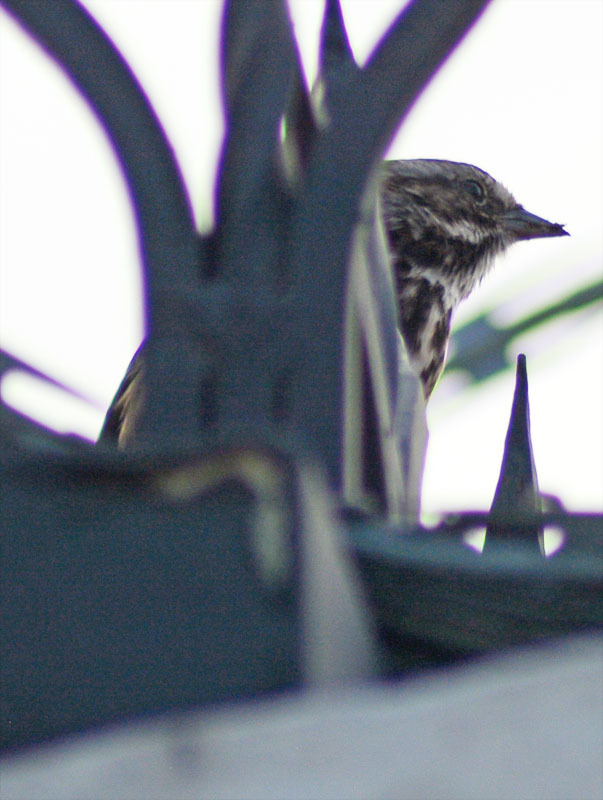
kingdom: Animalia
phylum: Chordata
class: Aves
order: Passeriformes
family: Passerellidae
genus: Melospiza
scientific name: Melospiza melodia
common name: Song sparrow
